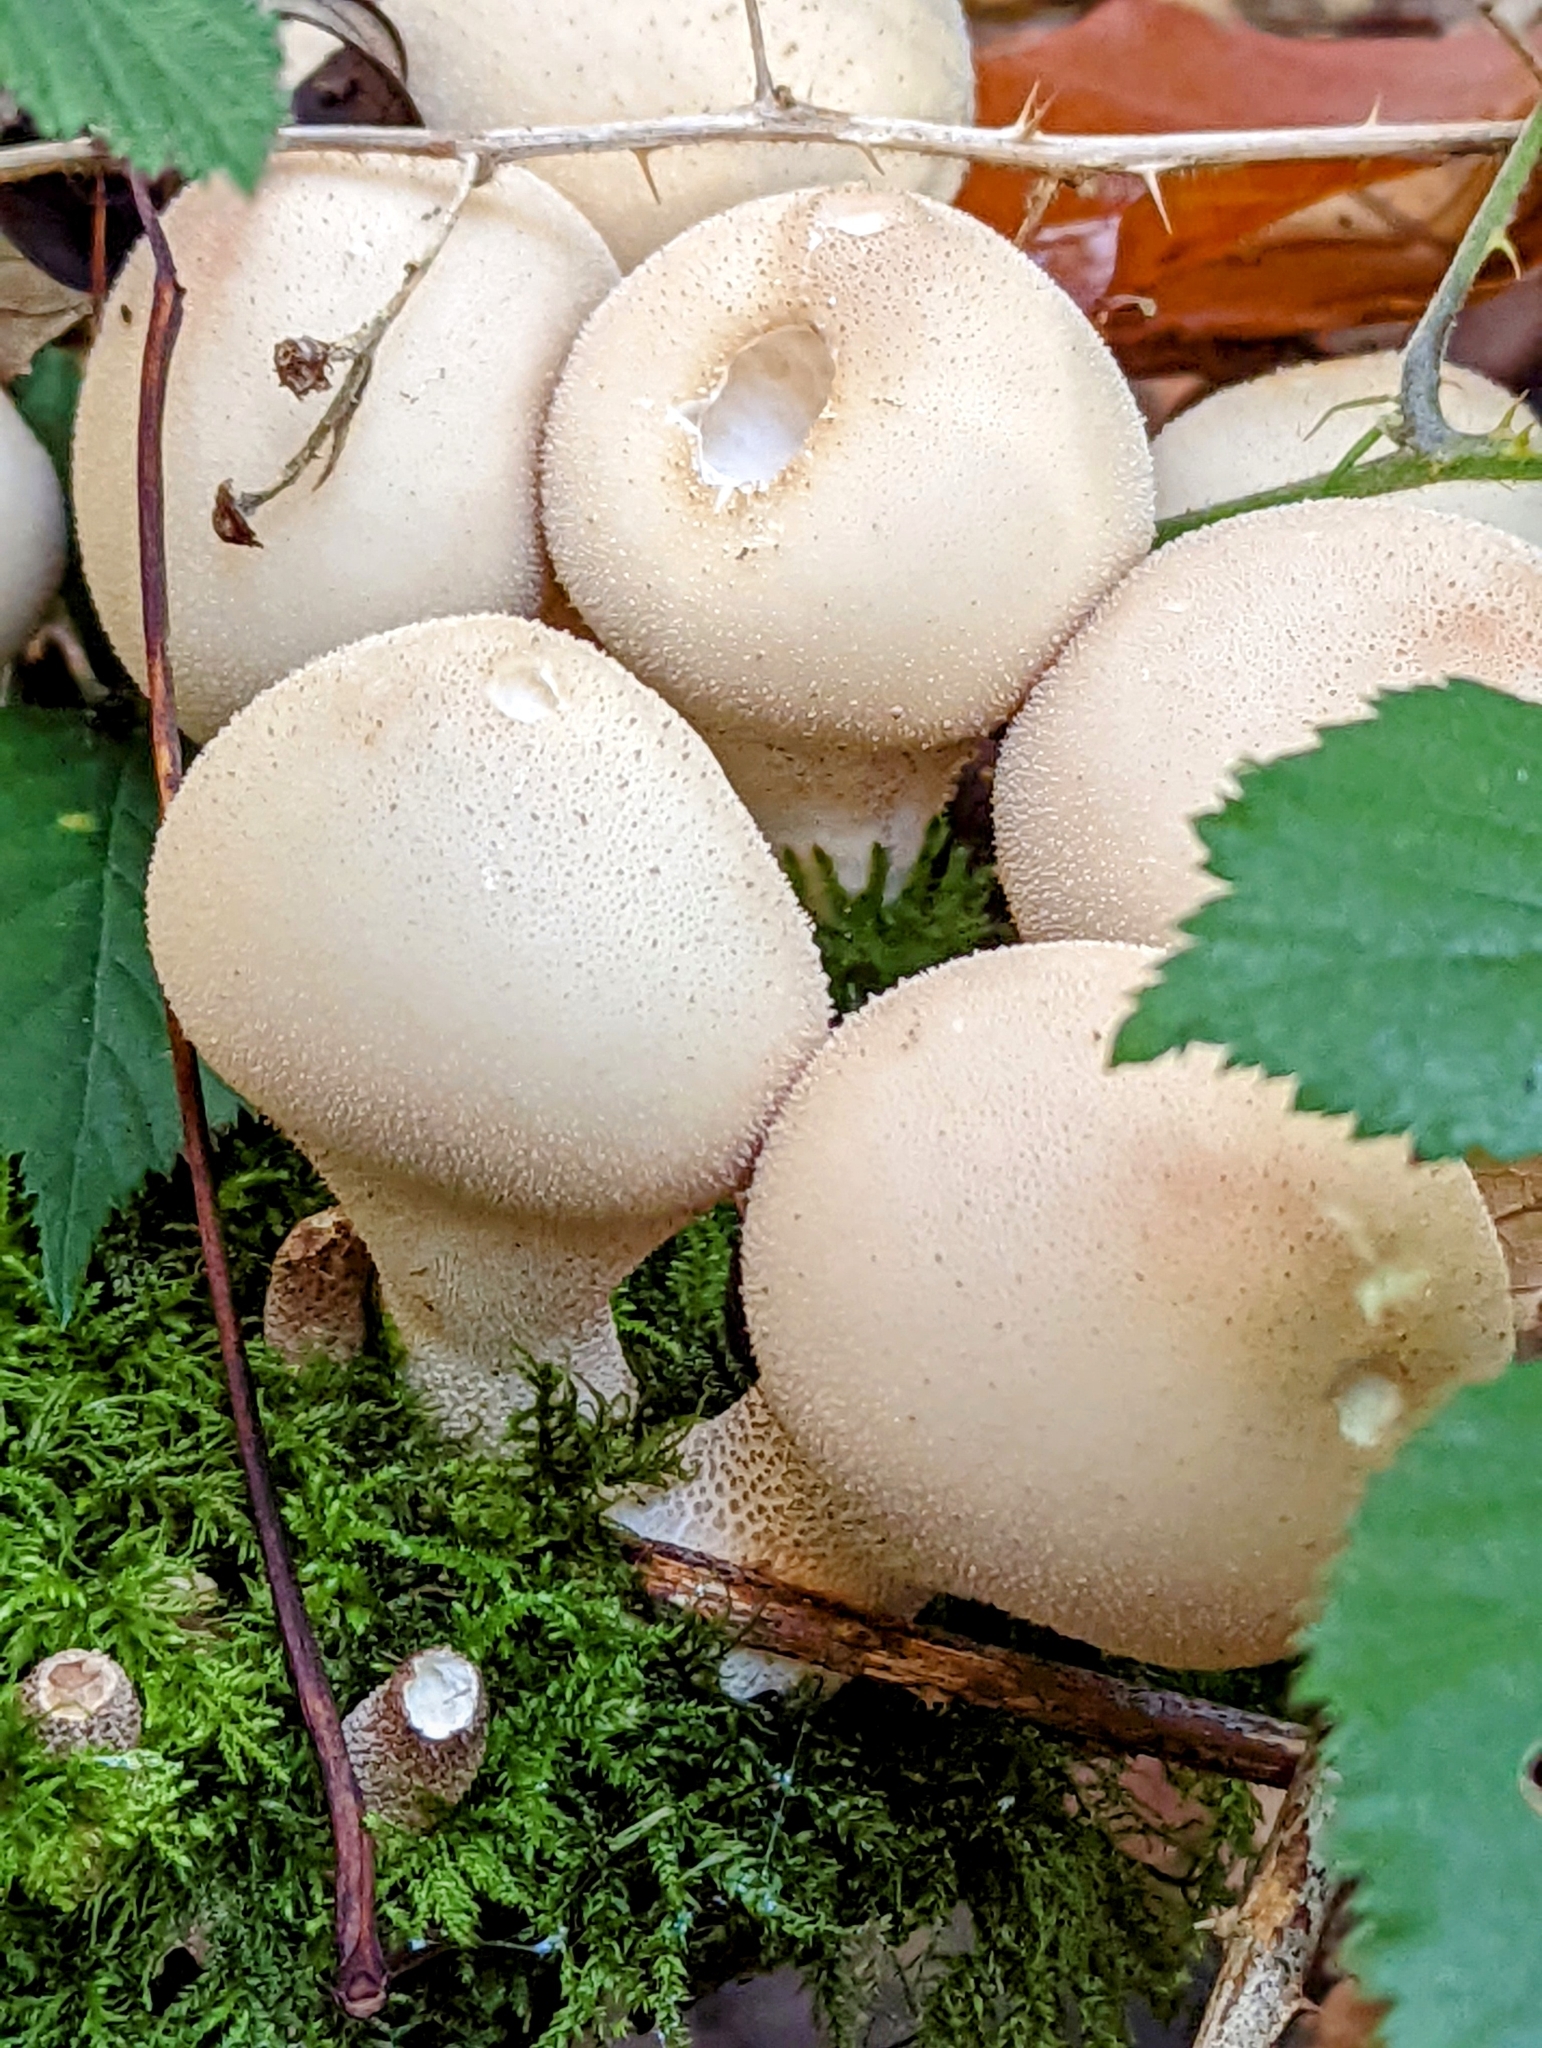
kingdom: Fungi
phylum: Basidiomycota
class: Agaricomycetes
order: Agaricales
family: Lycoperdaceae
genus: Apioperdon
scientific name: Apioperdon pyriforme
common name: Pear-shaped puffball
